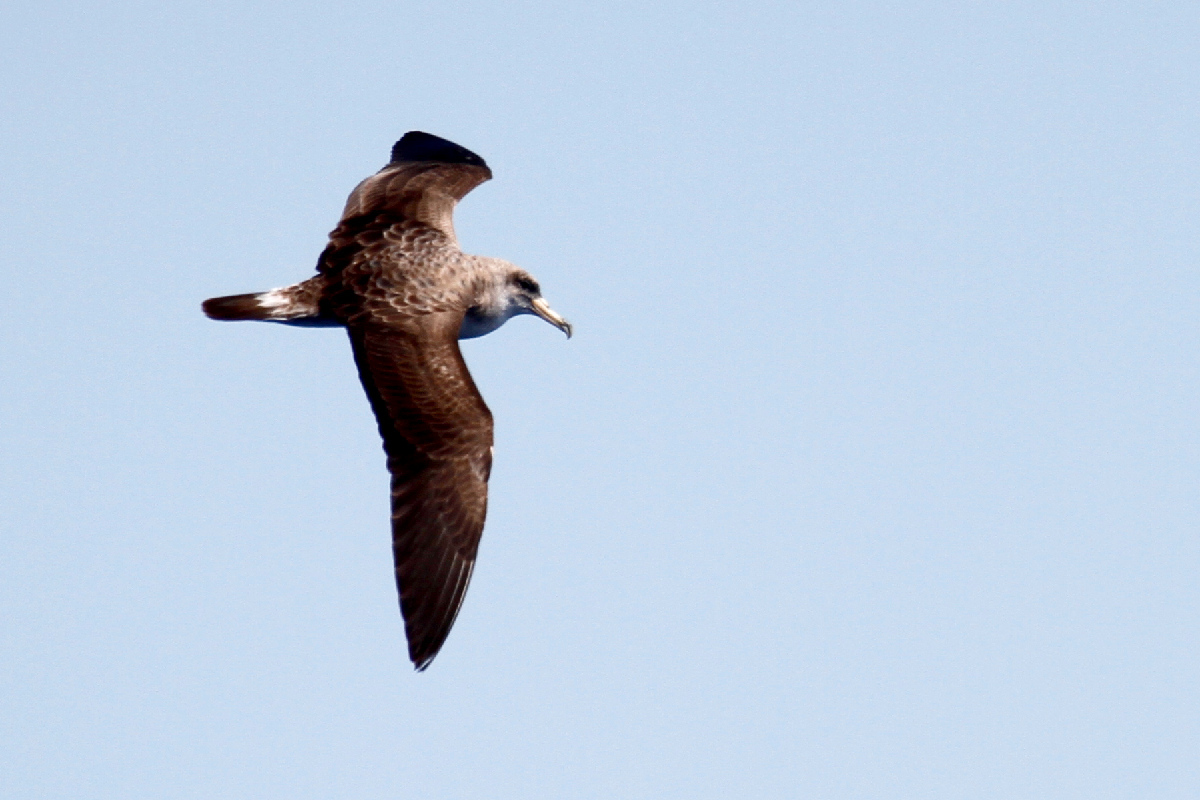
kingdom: Animalia
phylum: Chordata
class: Aves
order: Procellariiformes
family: Procellariidae
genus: Calonectris
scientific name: Calonectris diomedea
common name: Cory's shearwater
